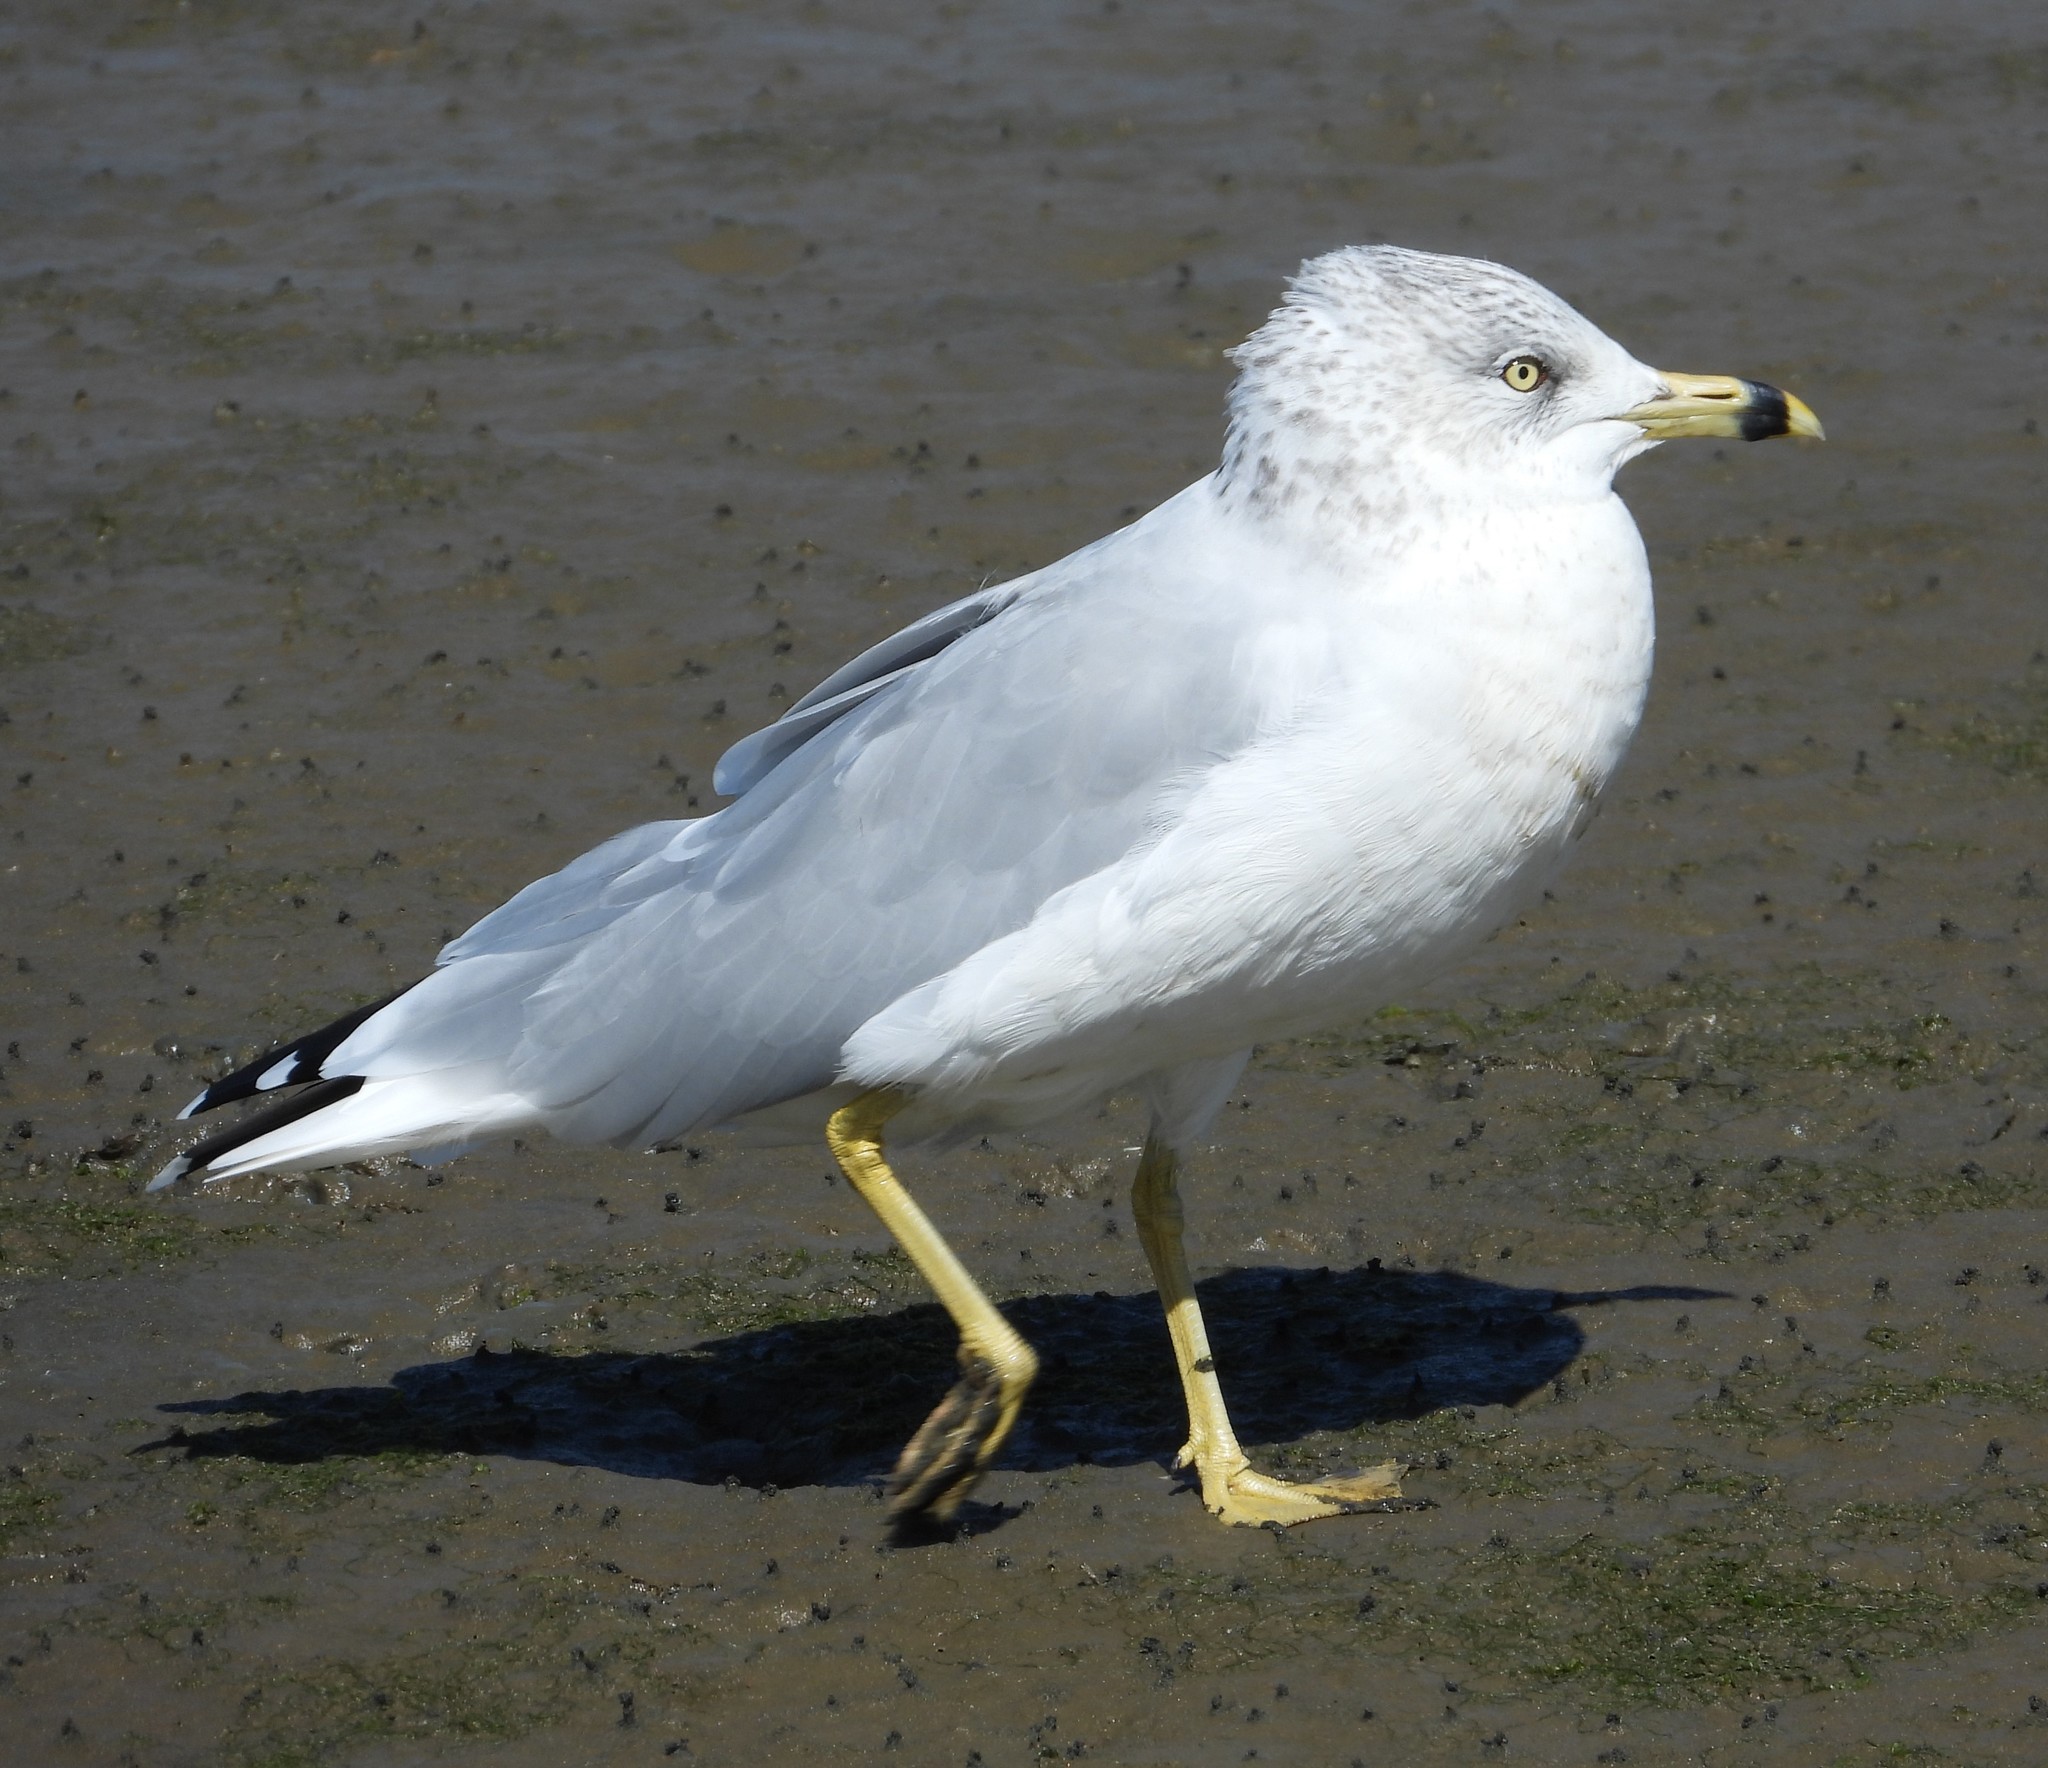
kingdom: Animalia
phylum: Chordata
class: Aves
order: Charadriiformes
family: Laridae
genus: Larus
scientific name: Larus delawarensis
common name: Ring-billed gull
